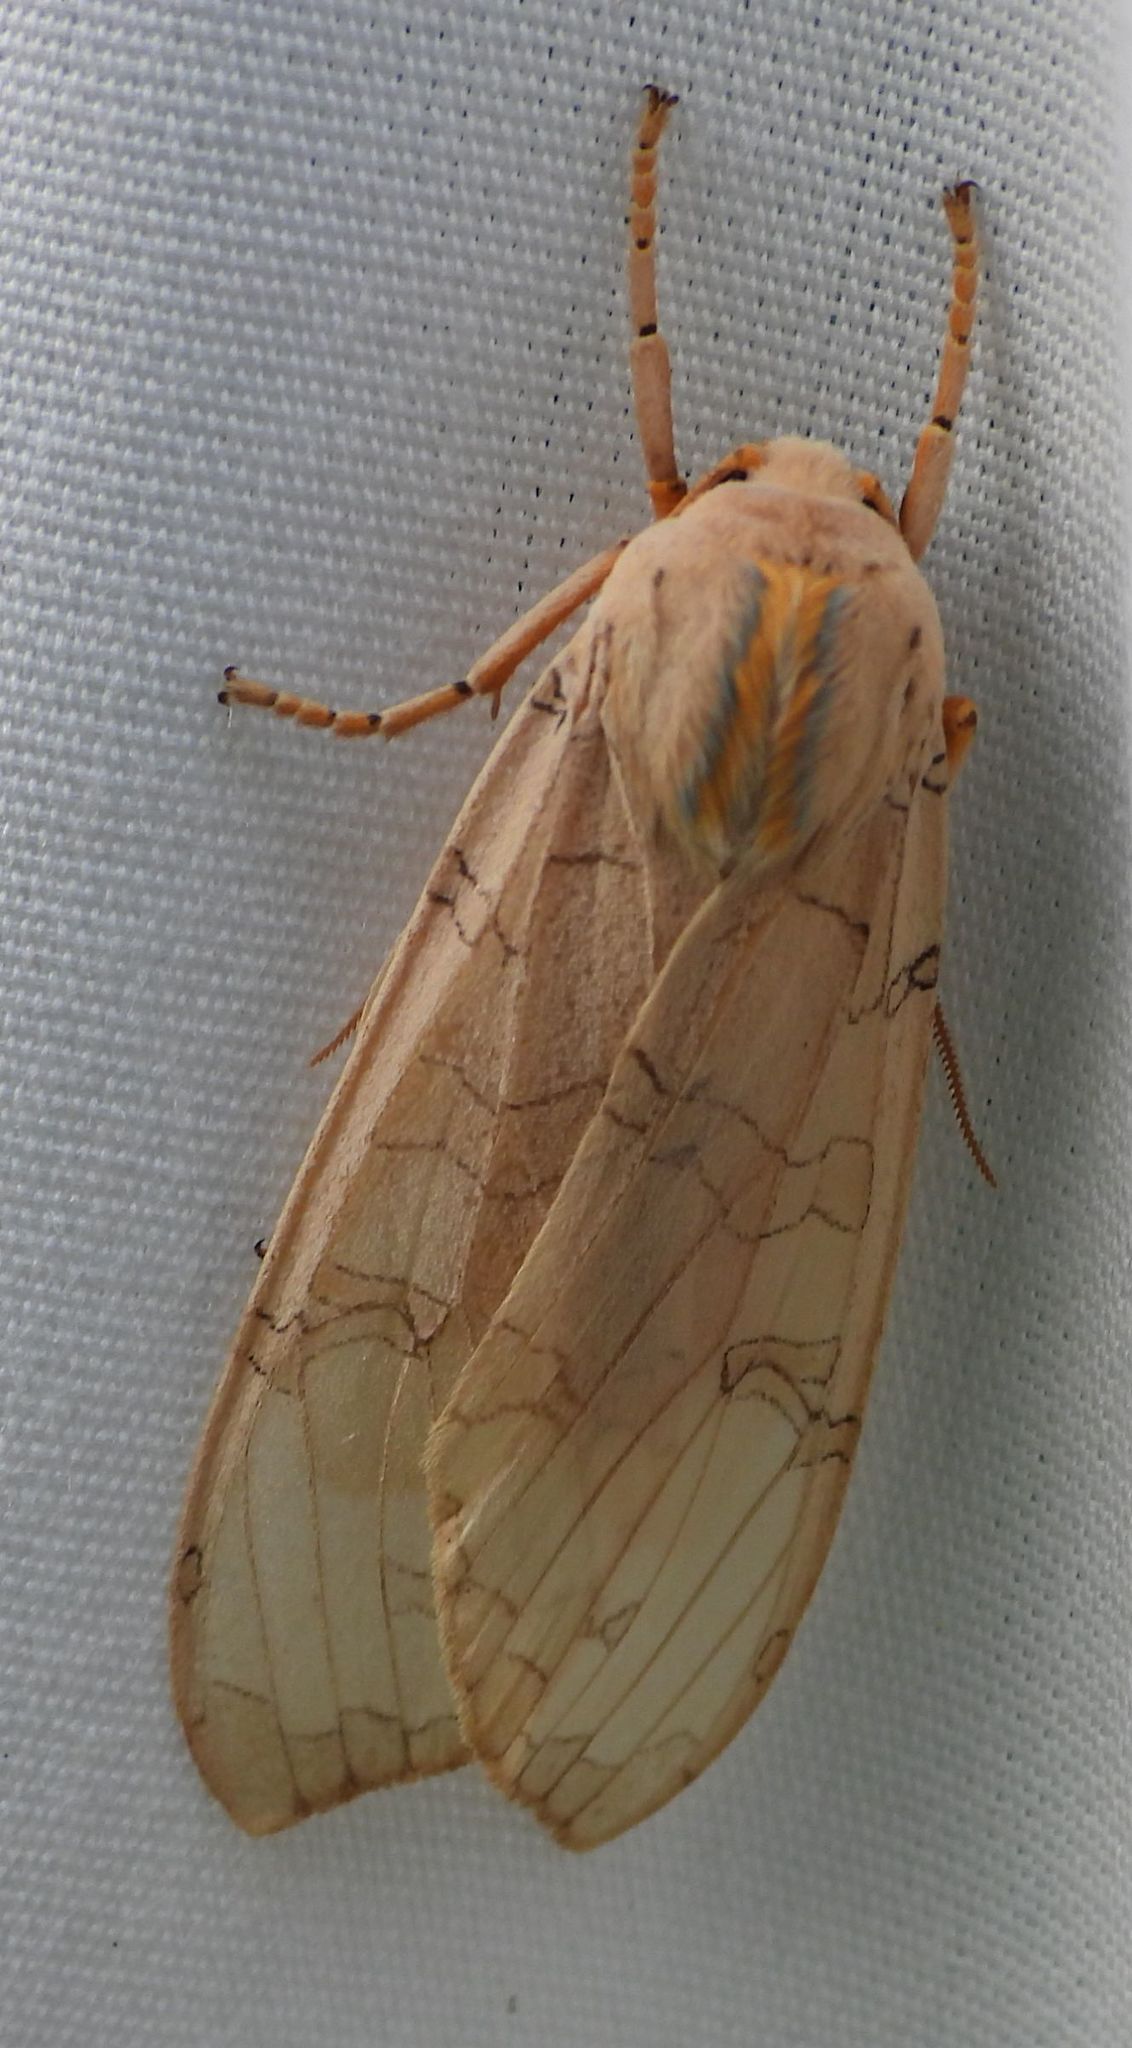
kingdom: Animalia
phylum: Arthropoda
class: Insecta
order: Lepidoptera
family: Erebidae
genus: Halysidota
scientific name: Halysidota tessellaris
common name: Banded tussock moth
